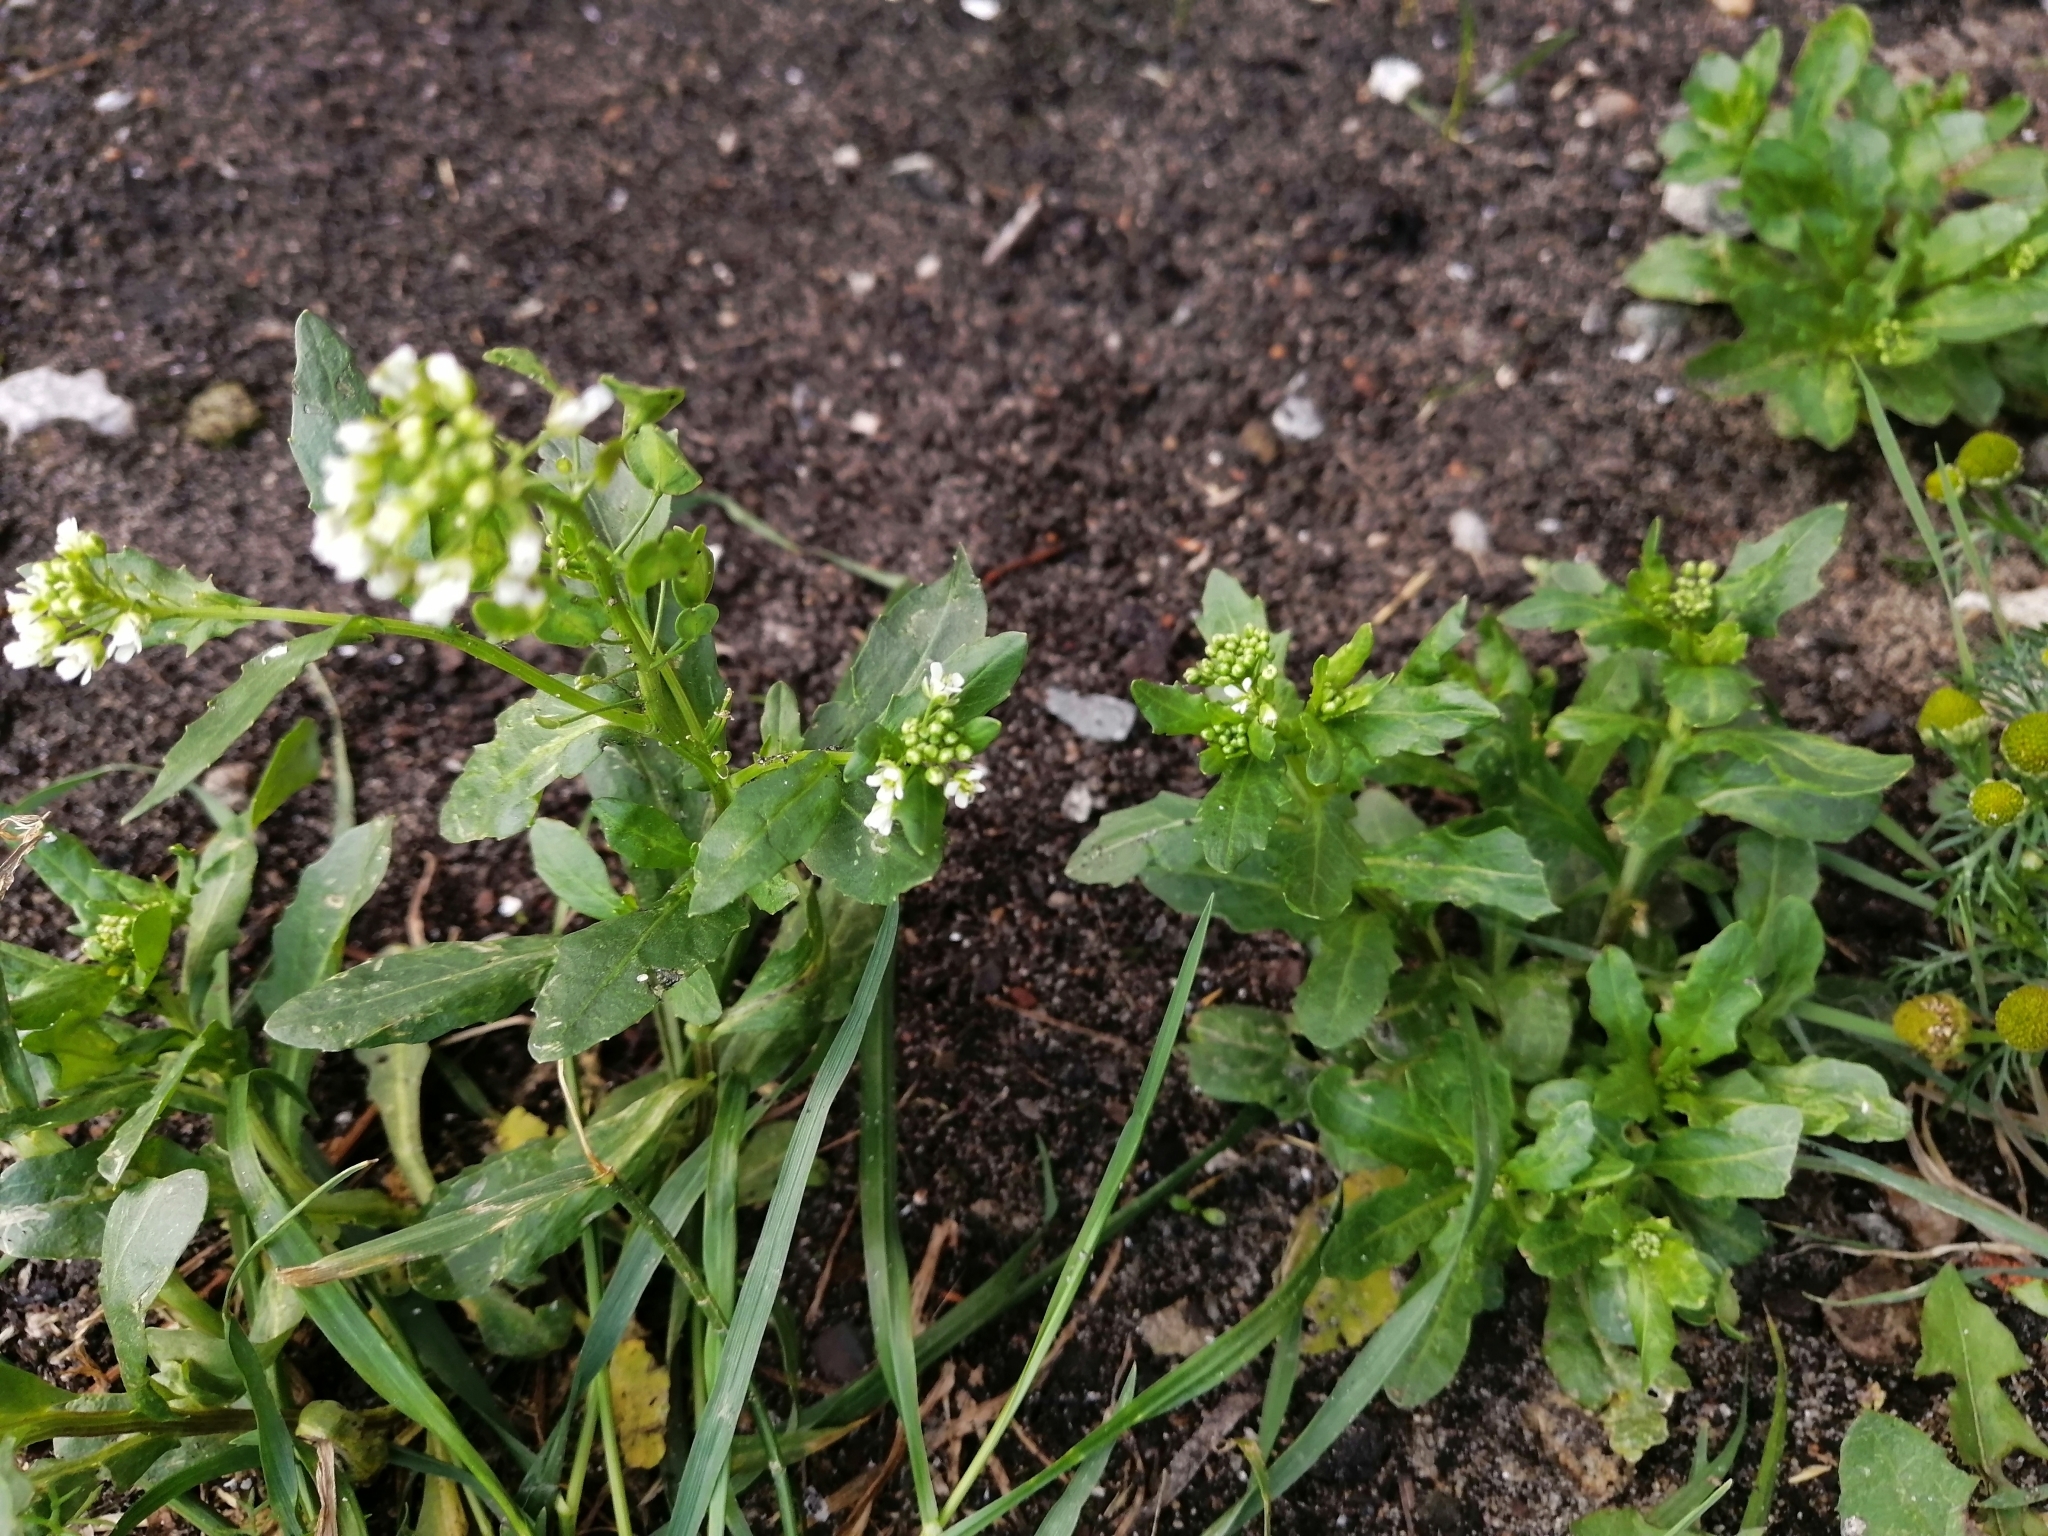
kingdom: Plantae
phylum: Tracheophyta
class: Magnoliopsida
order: Brassicales
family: Brassicaceae
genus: Thlaspi
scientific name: Thlaspi arvense
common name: Field pennycress
